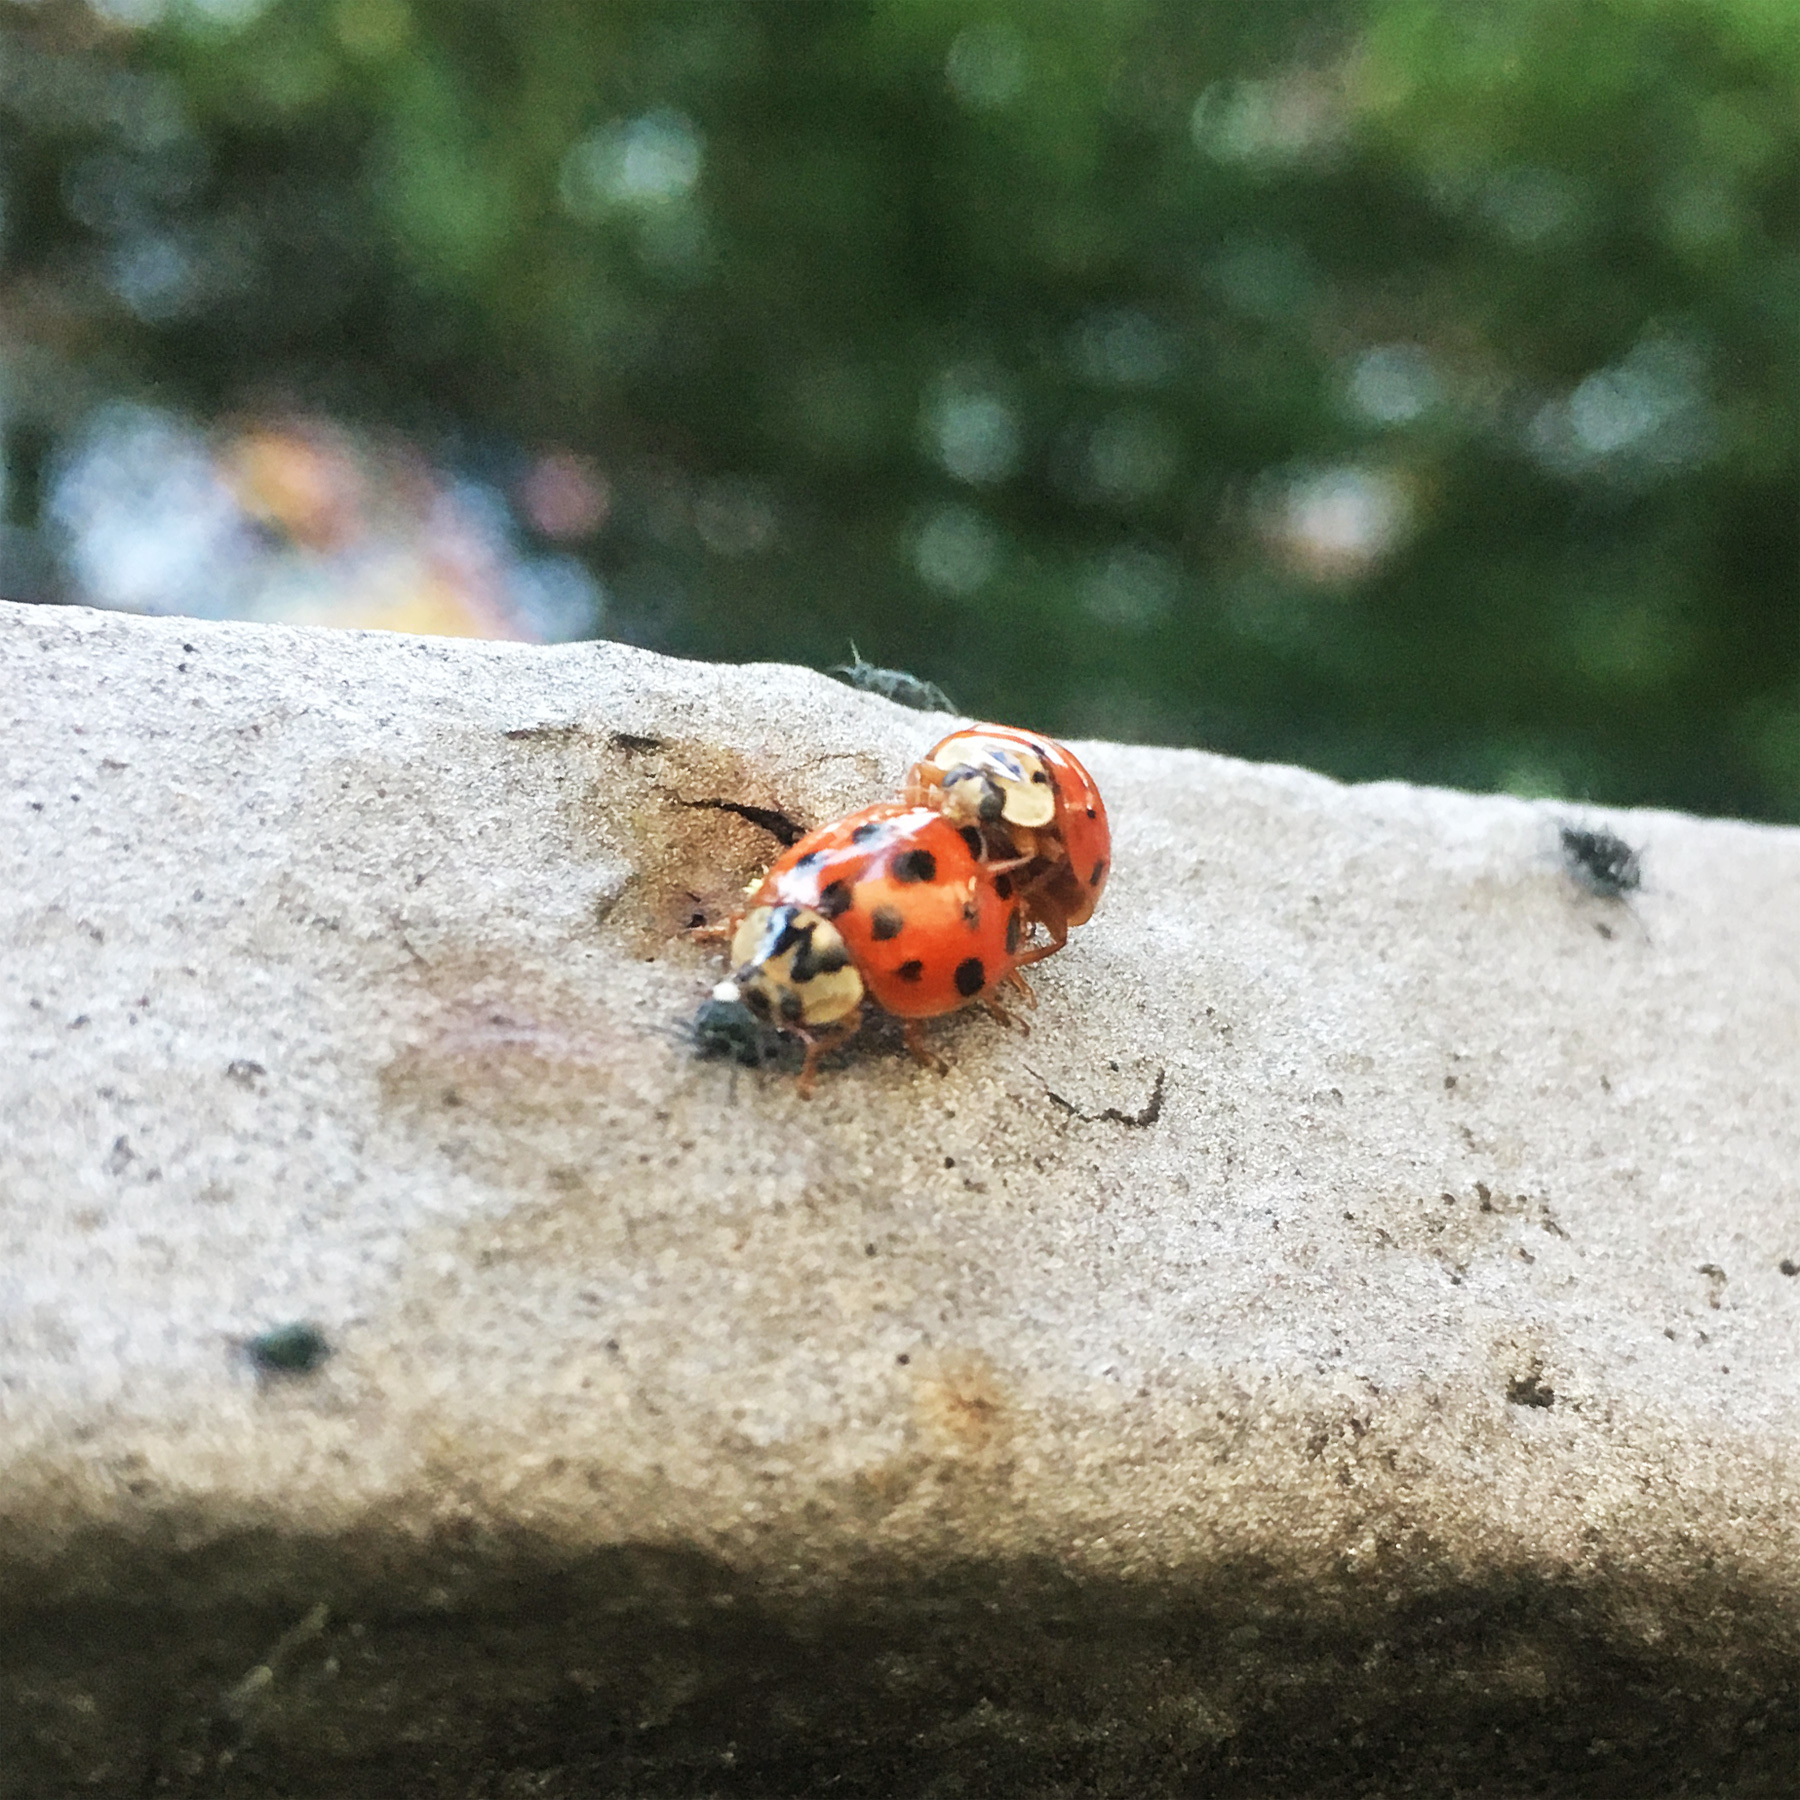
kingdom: Animalia
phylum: Arthropoda
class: Insecta
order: Coleoptera
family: Coccinellidae
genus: Harmonia
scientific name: Harmonia axyridis
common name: Harlequin ladybird
